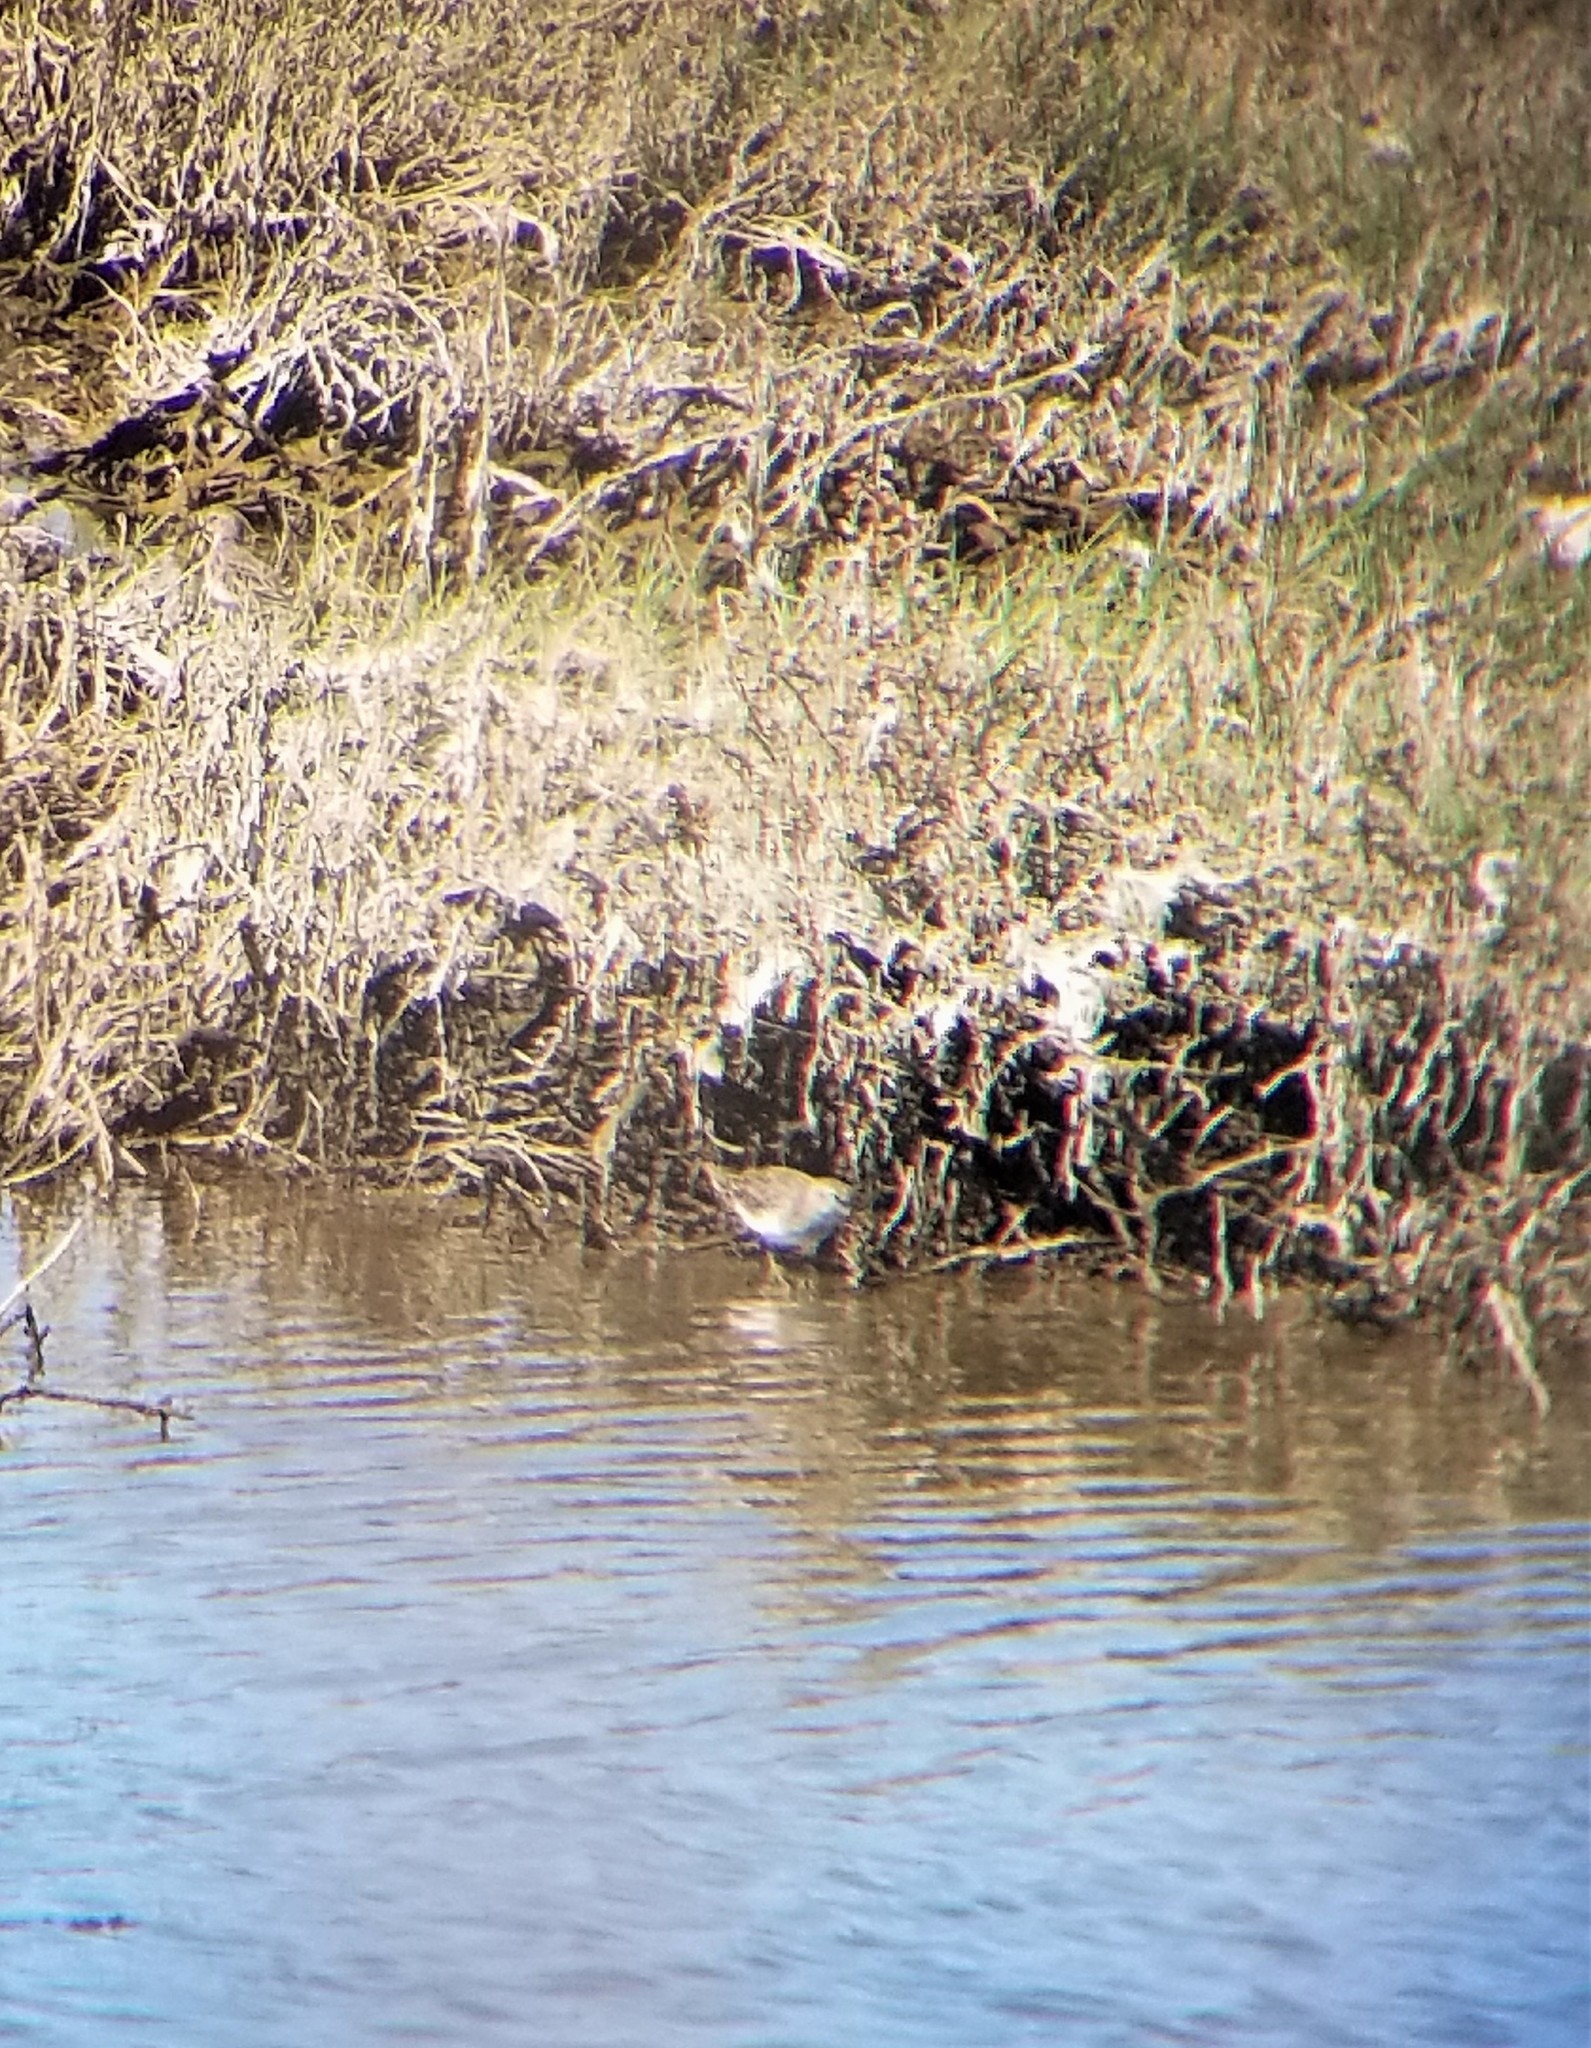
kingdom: Animalia
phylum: Chordata
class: Aves
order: Charadriiformes
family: Scolopacidae
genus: Calidris
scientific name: Calidris minutilla
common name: Least sandpiper
